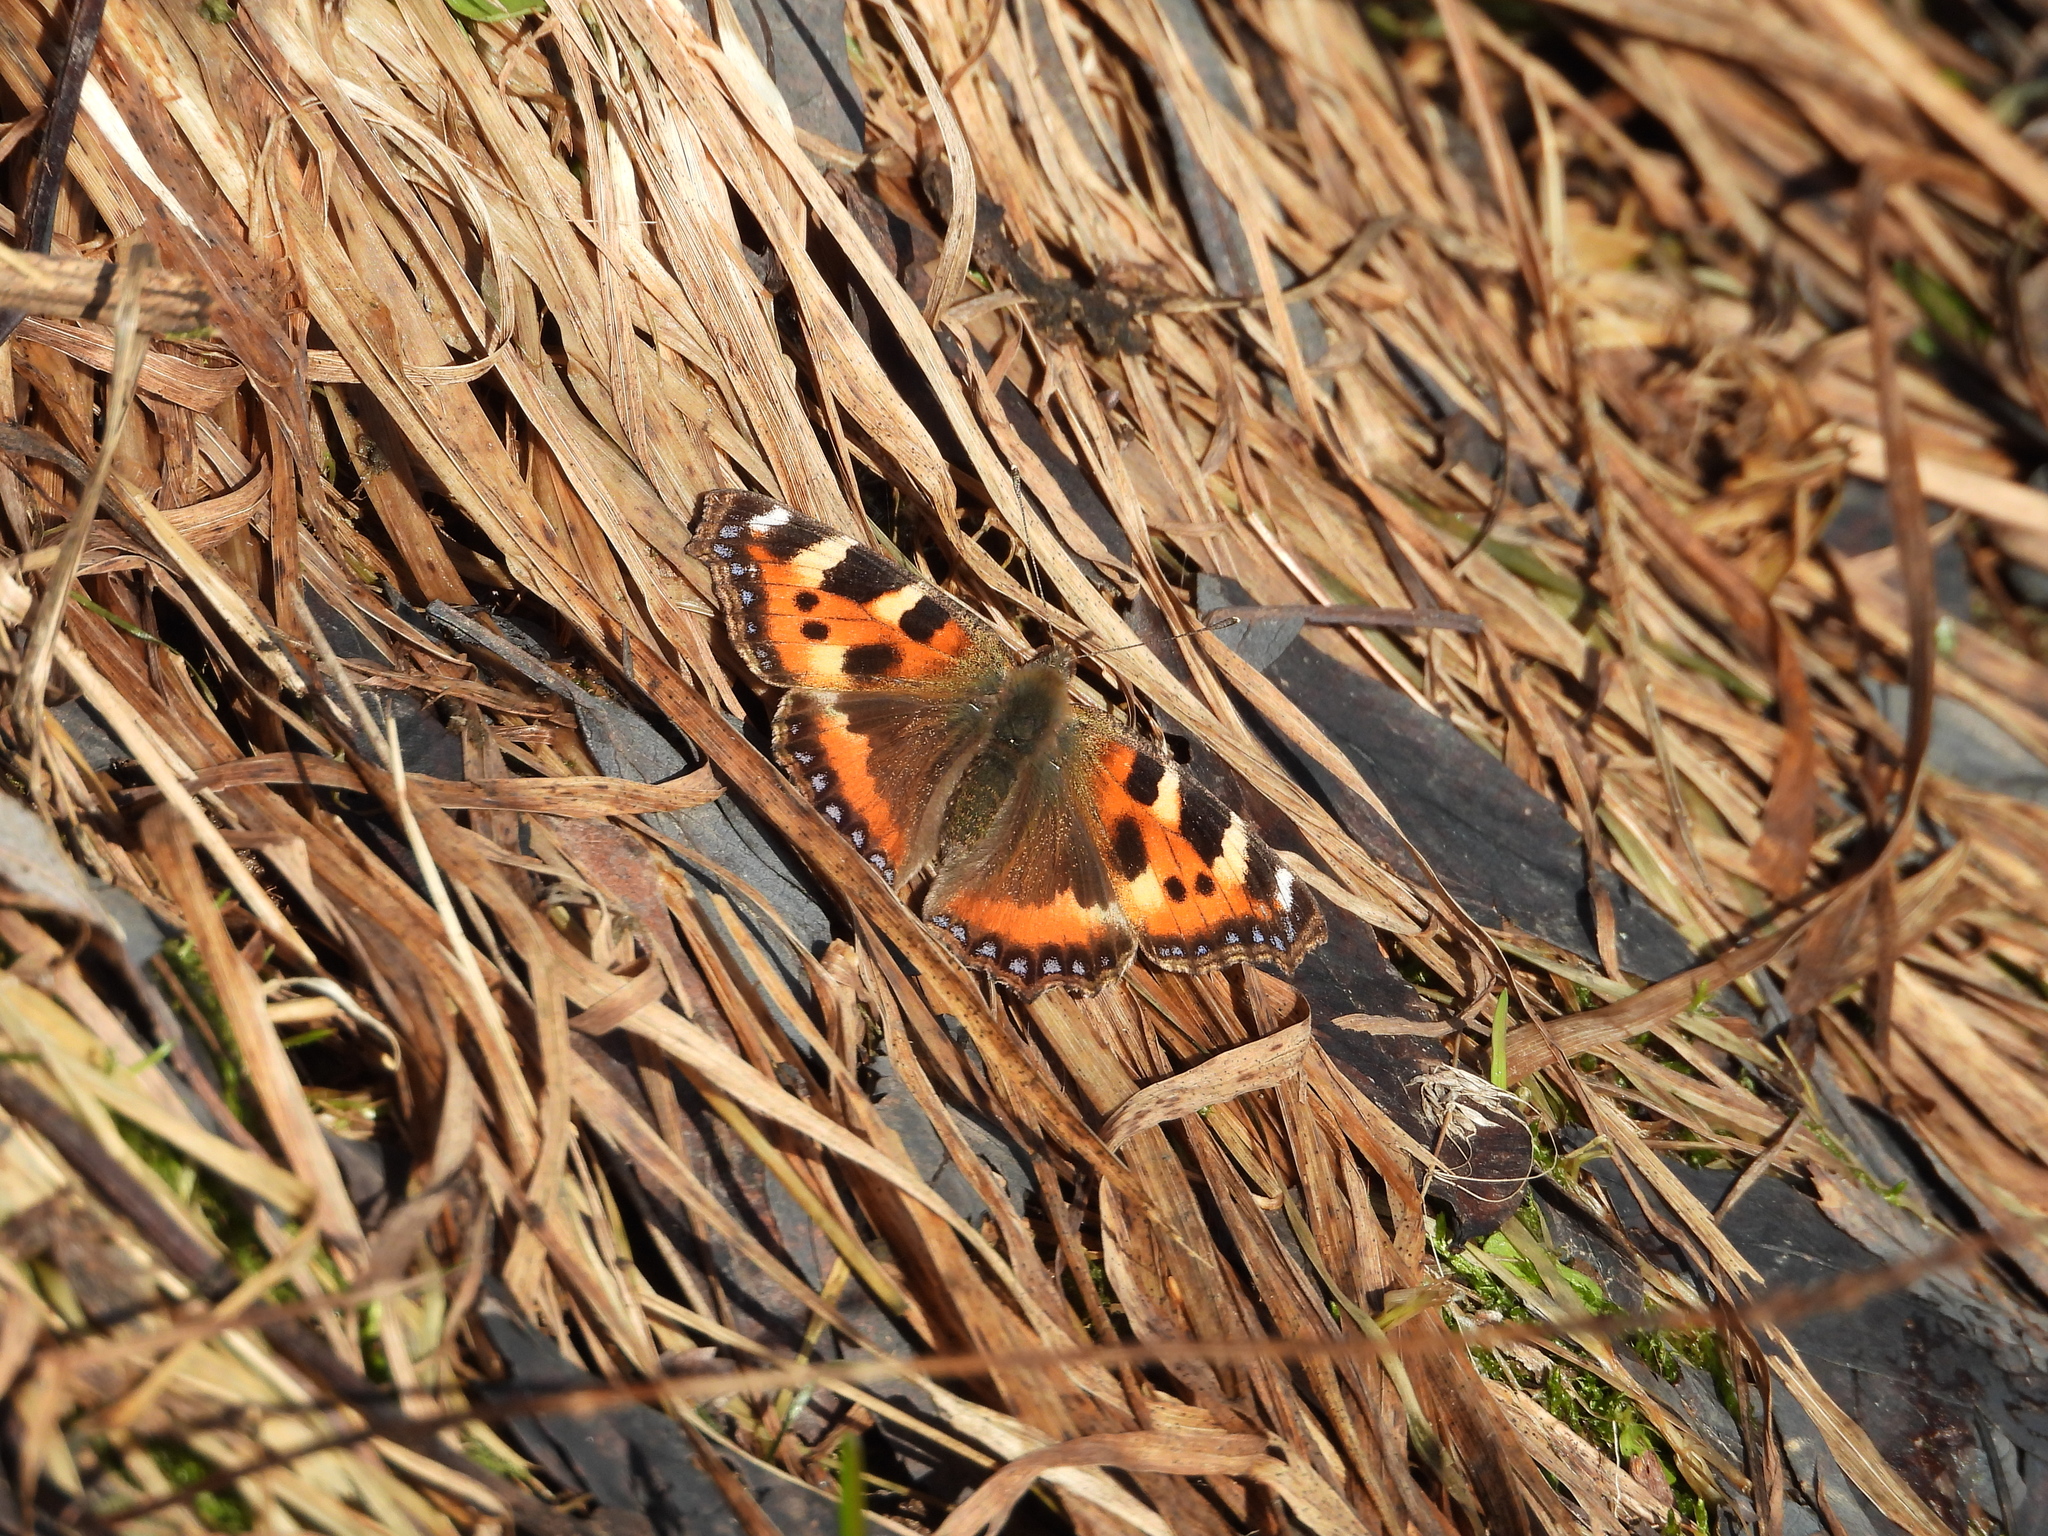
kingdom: Animalia
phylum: Arthropoda
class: Insecta
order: Lepidoptera
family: Nymphalidae
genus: Aglais
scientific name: Aglais urticae
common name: Small tortoiseshell
